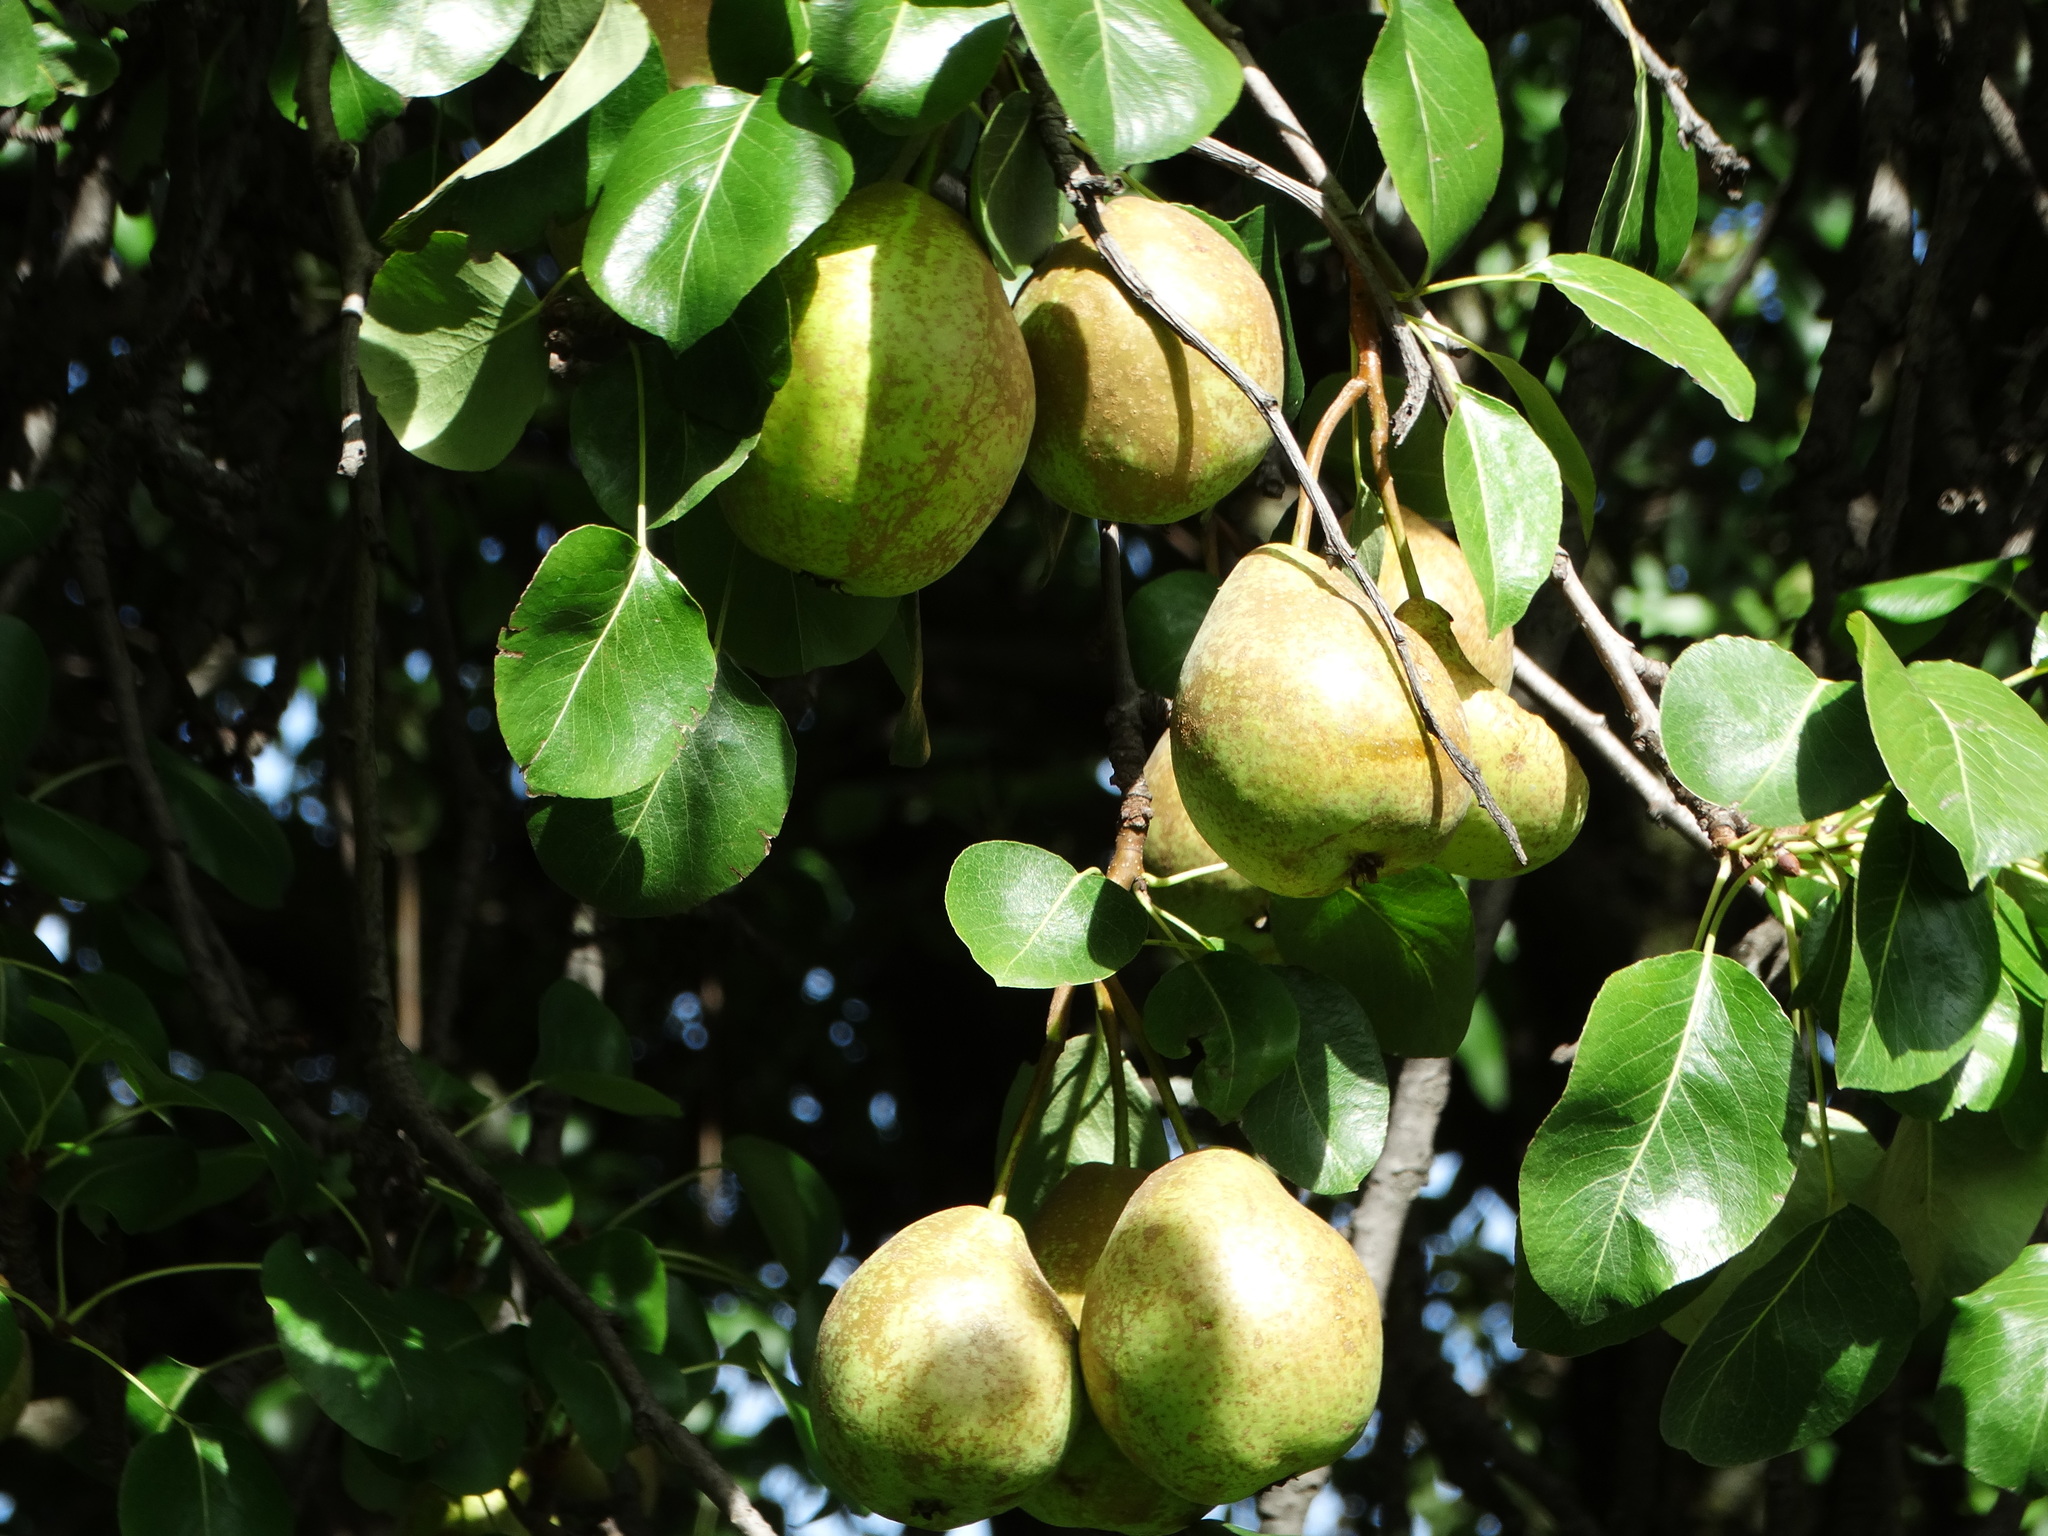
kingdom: Plantae
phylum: Tracheophyta
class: Magnoliopsida
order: Rosales
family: Rosaceae
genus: Pyrus
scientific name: Pyrus communis
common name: Pear
